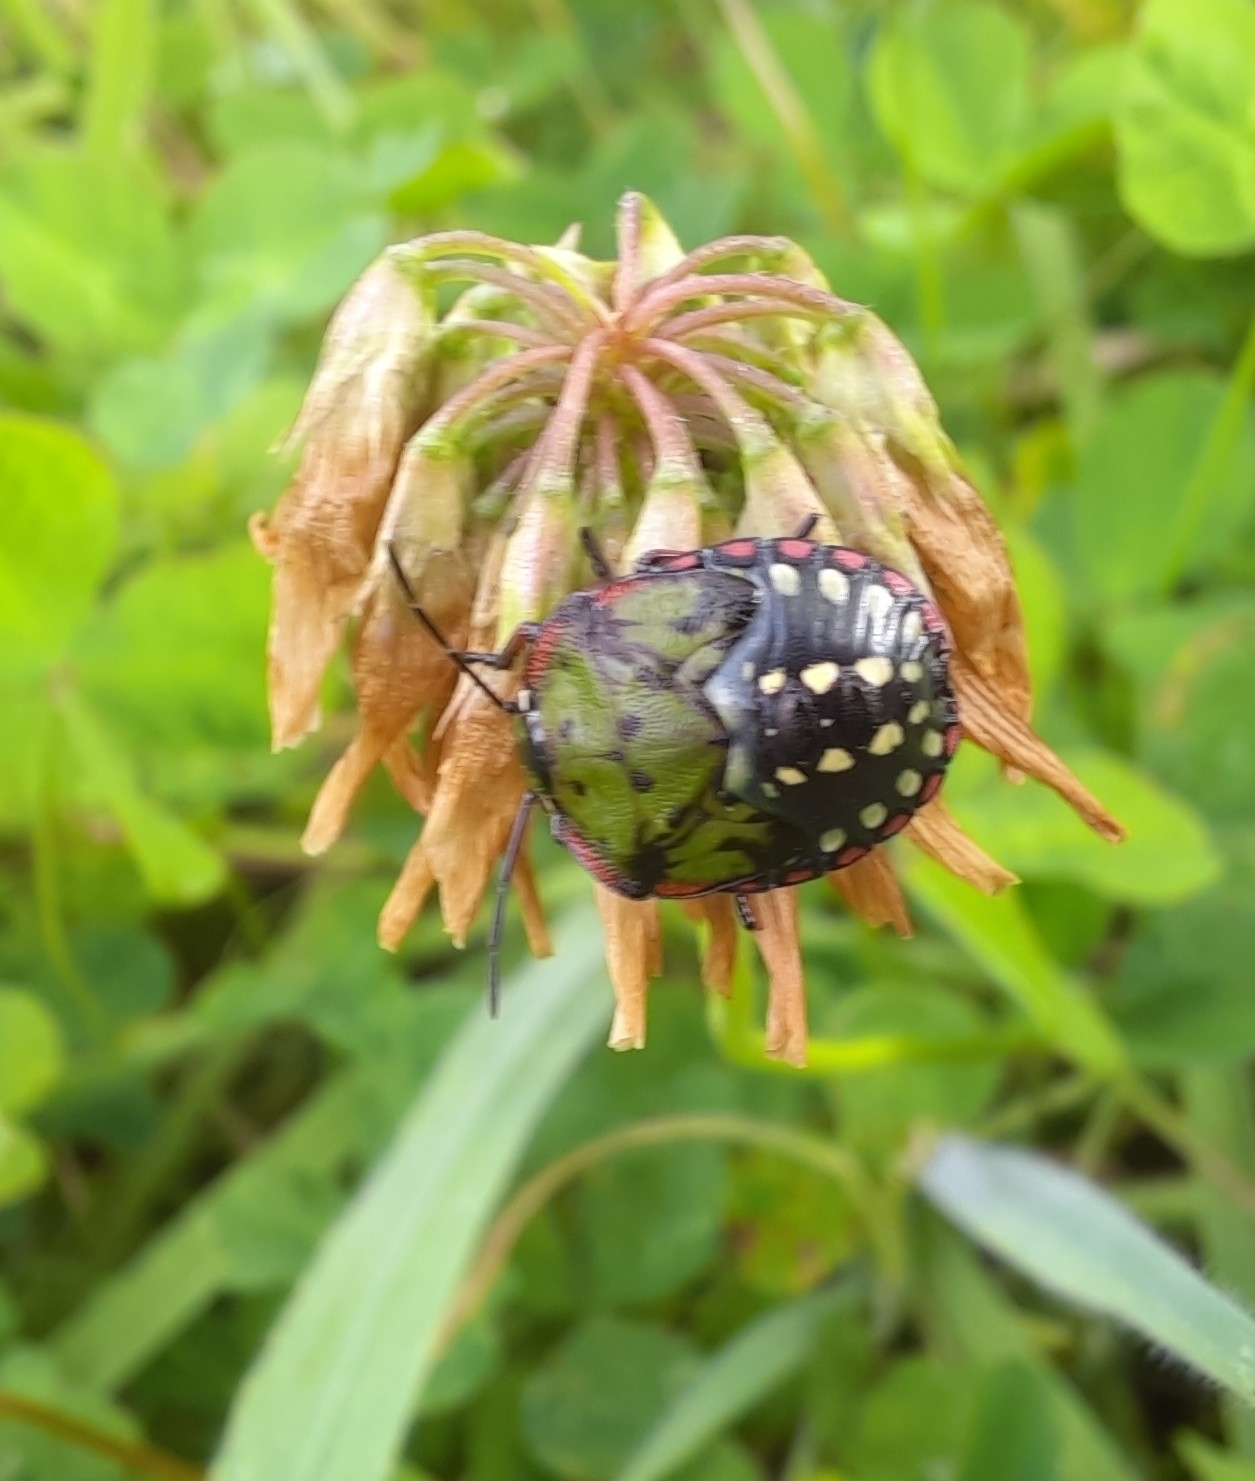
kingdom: Animalia
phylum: Arthropoda
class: Insecta
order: Hemiptera
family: Pentatomidae
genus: Nezara
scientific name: Nezara viridula
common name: Southern green stink bug
